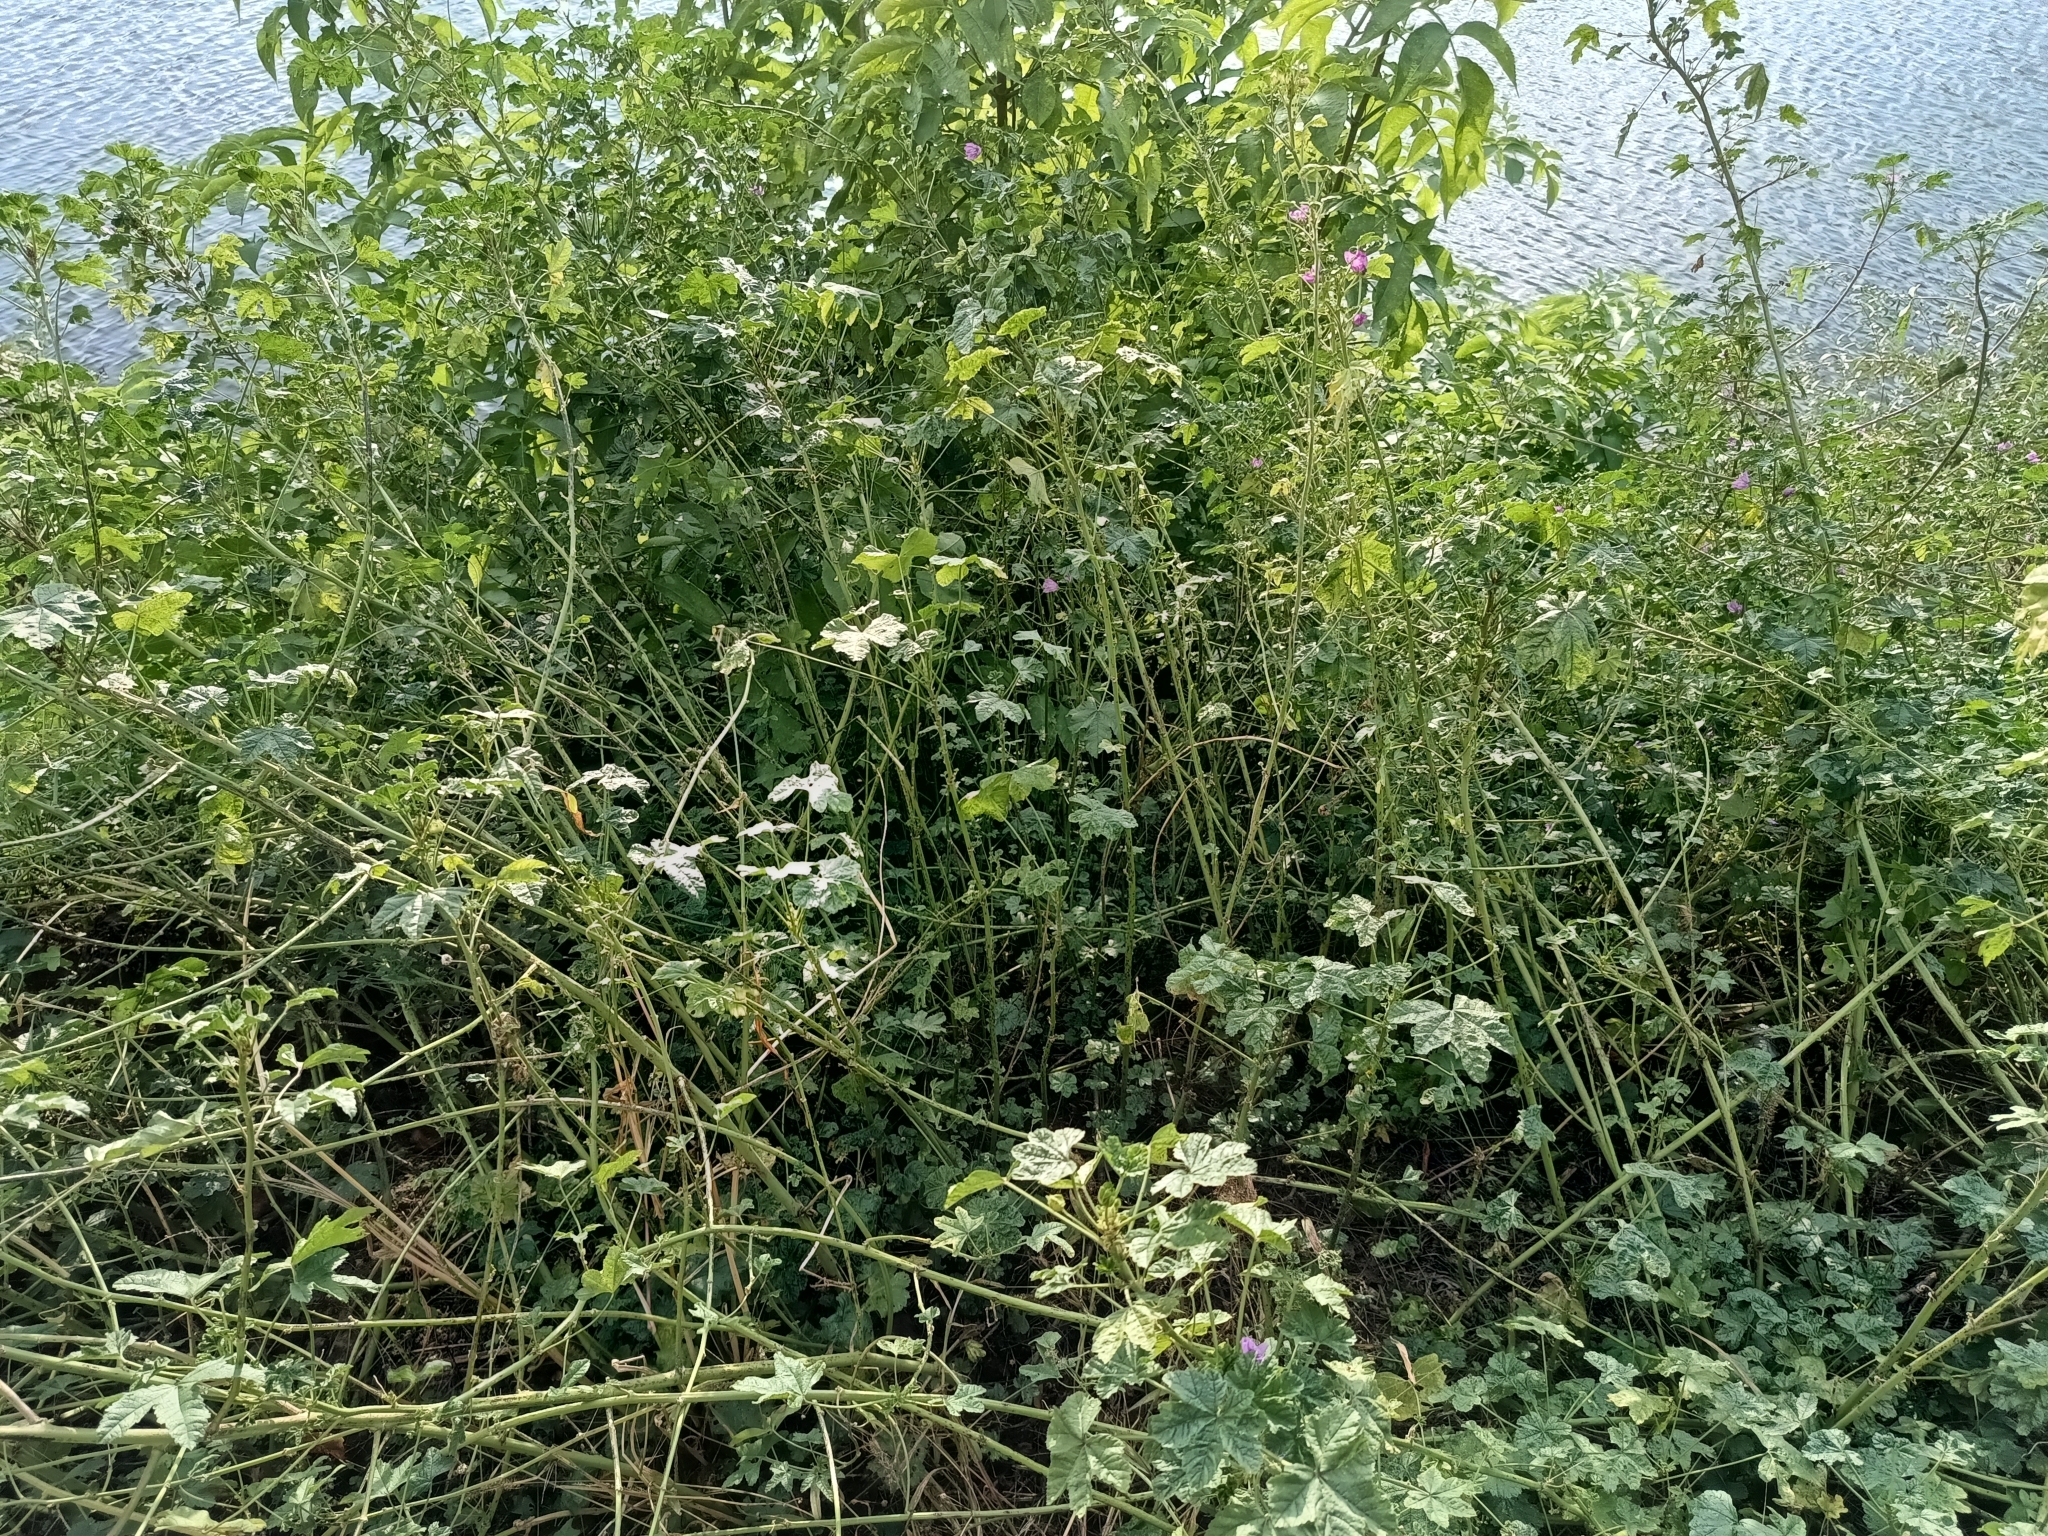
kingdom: Plantae
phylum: Tracheophyta
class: Magnoliopsida
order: Malvales
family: Malvaceae
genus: Malva
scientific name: Malva sylvestris
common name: Common mallow
